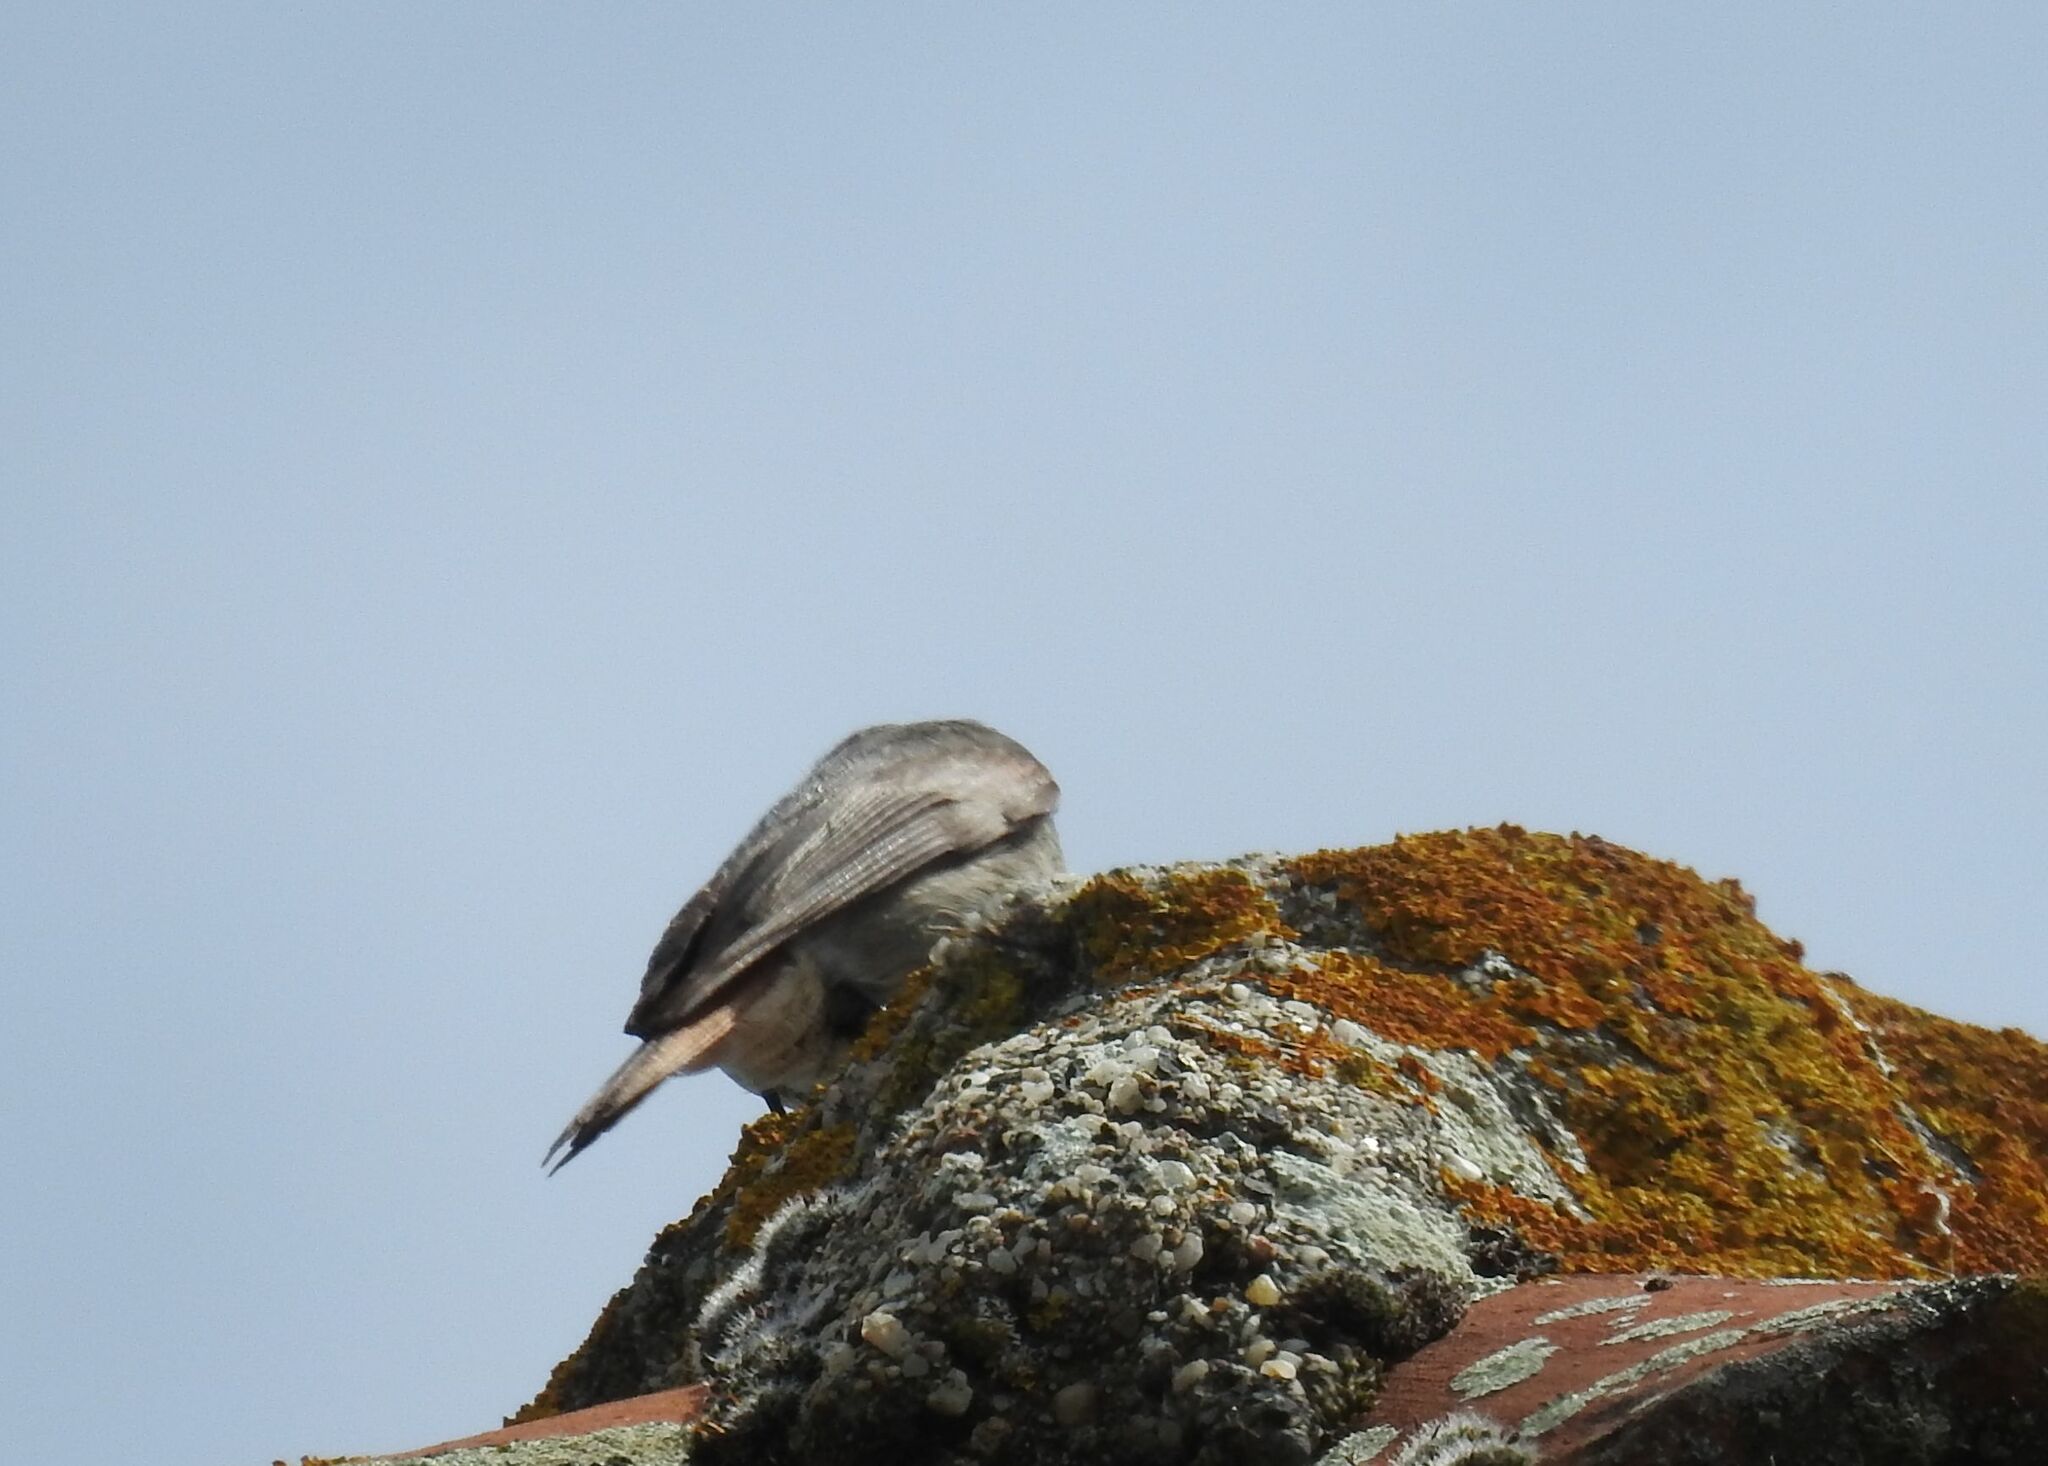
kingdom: Animalia
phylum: Chordata
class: Aves
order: Passeriformes
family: Muscicapidae
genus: Phoenicurus
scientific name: Phoenicurus ochruros
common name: Black redstart
